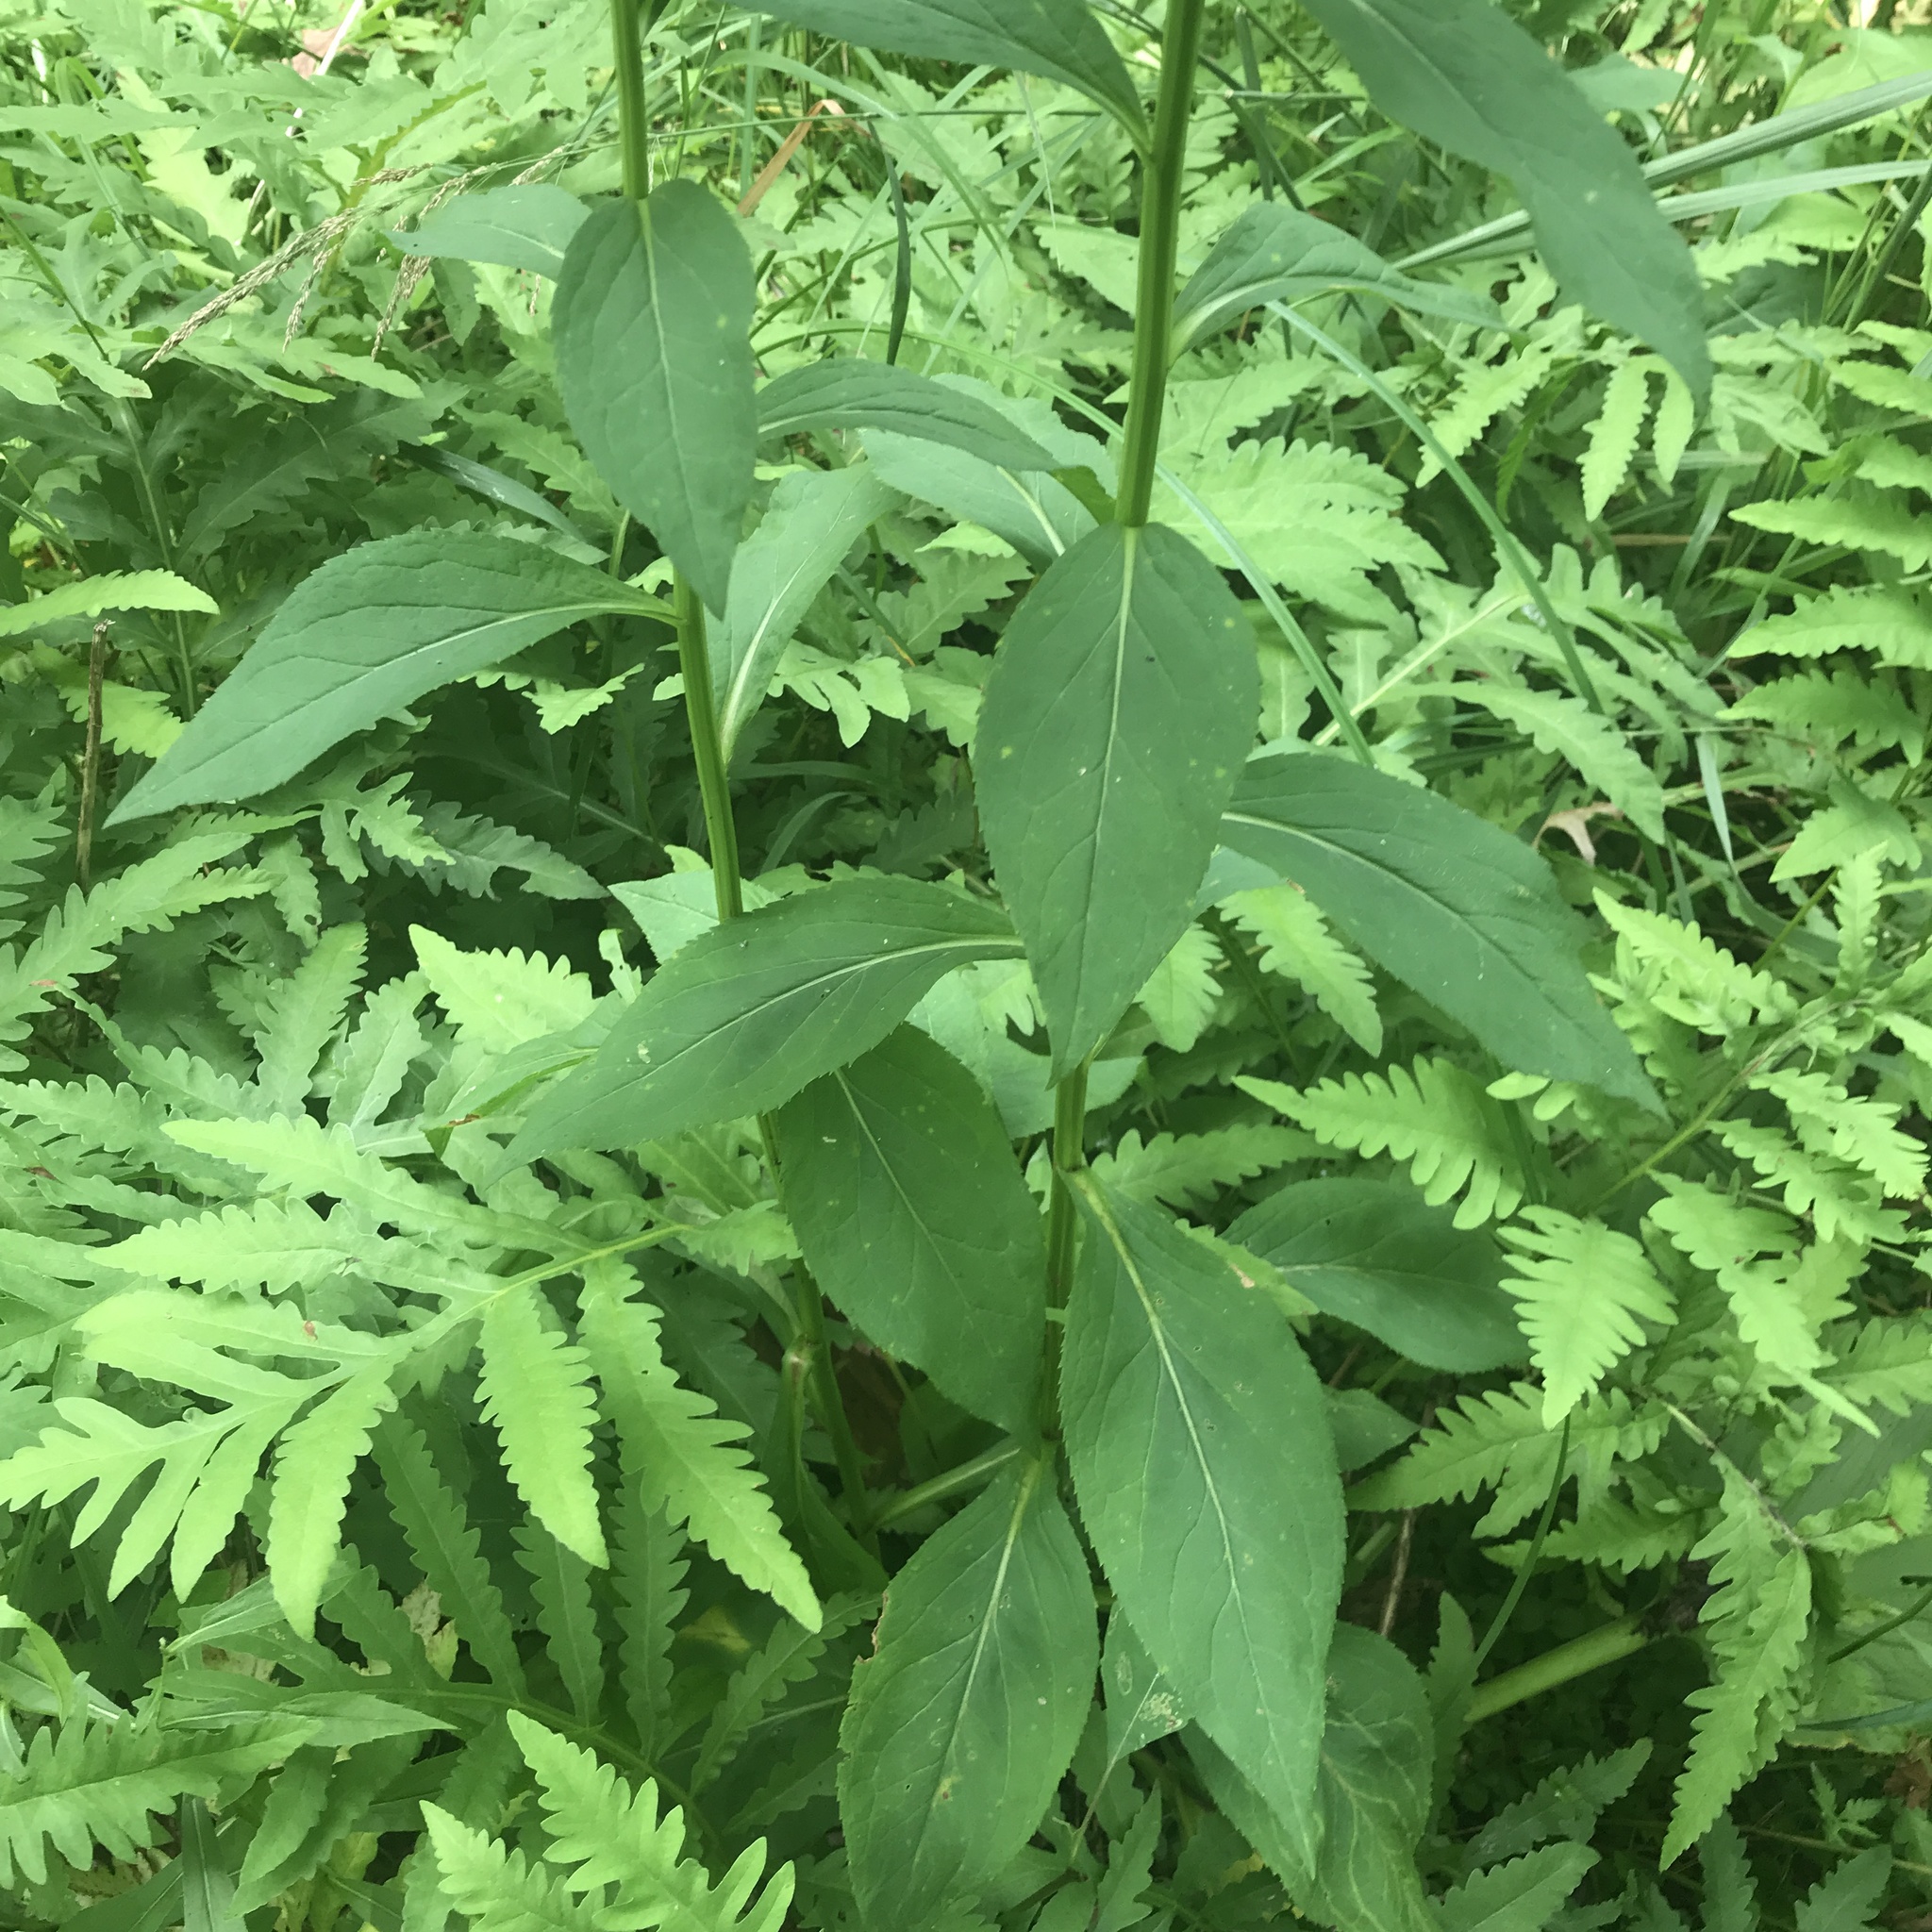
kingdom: Plantae
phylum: Tracheophyta
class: Magnoliopsida
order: Asterales
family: Asteraceae
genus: Solidago
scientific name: Solidago patula
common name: Rough-leaf goldenrod
